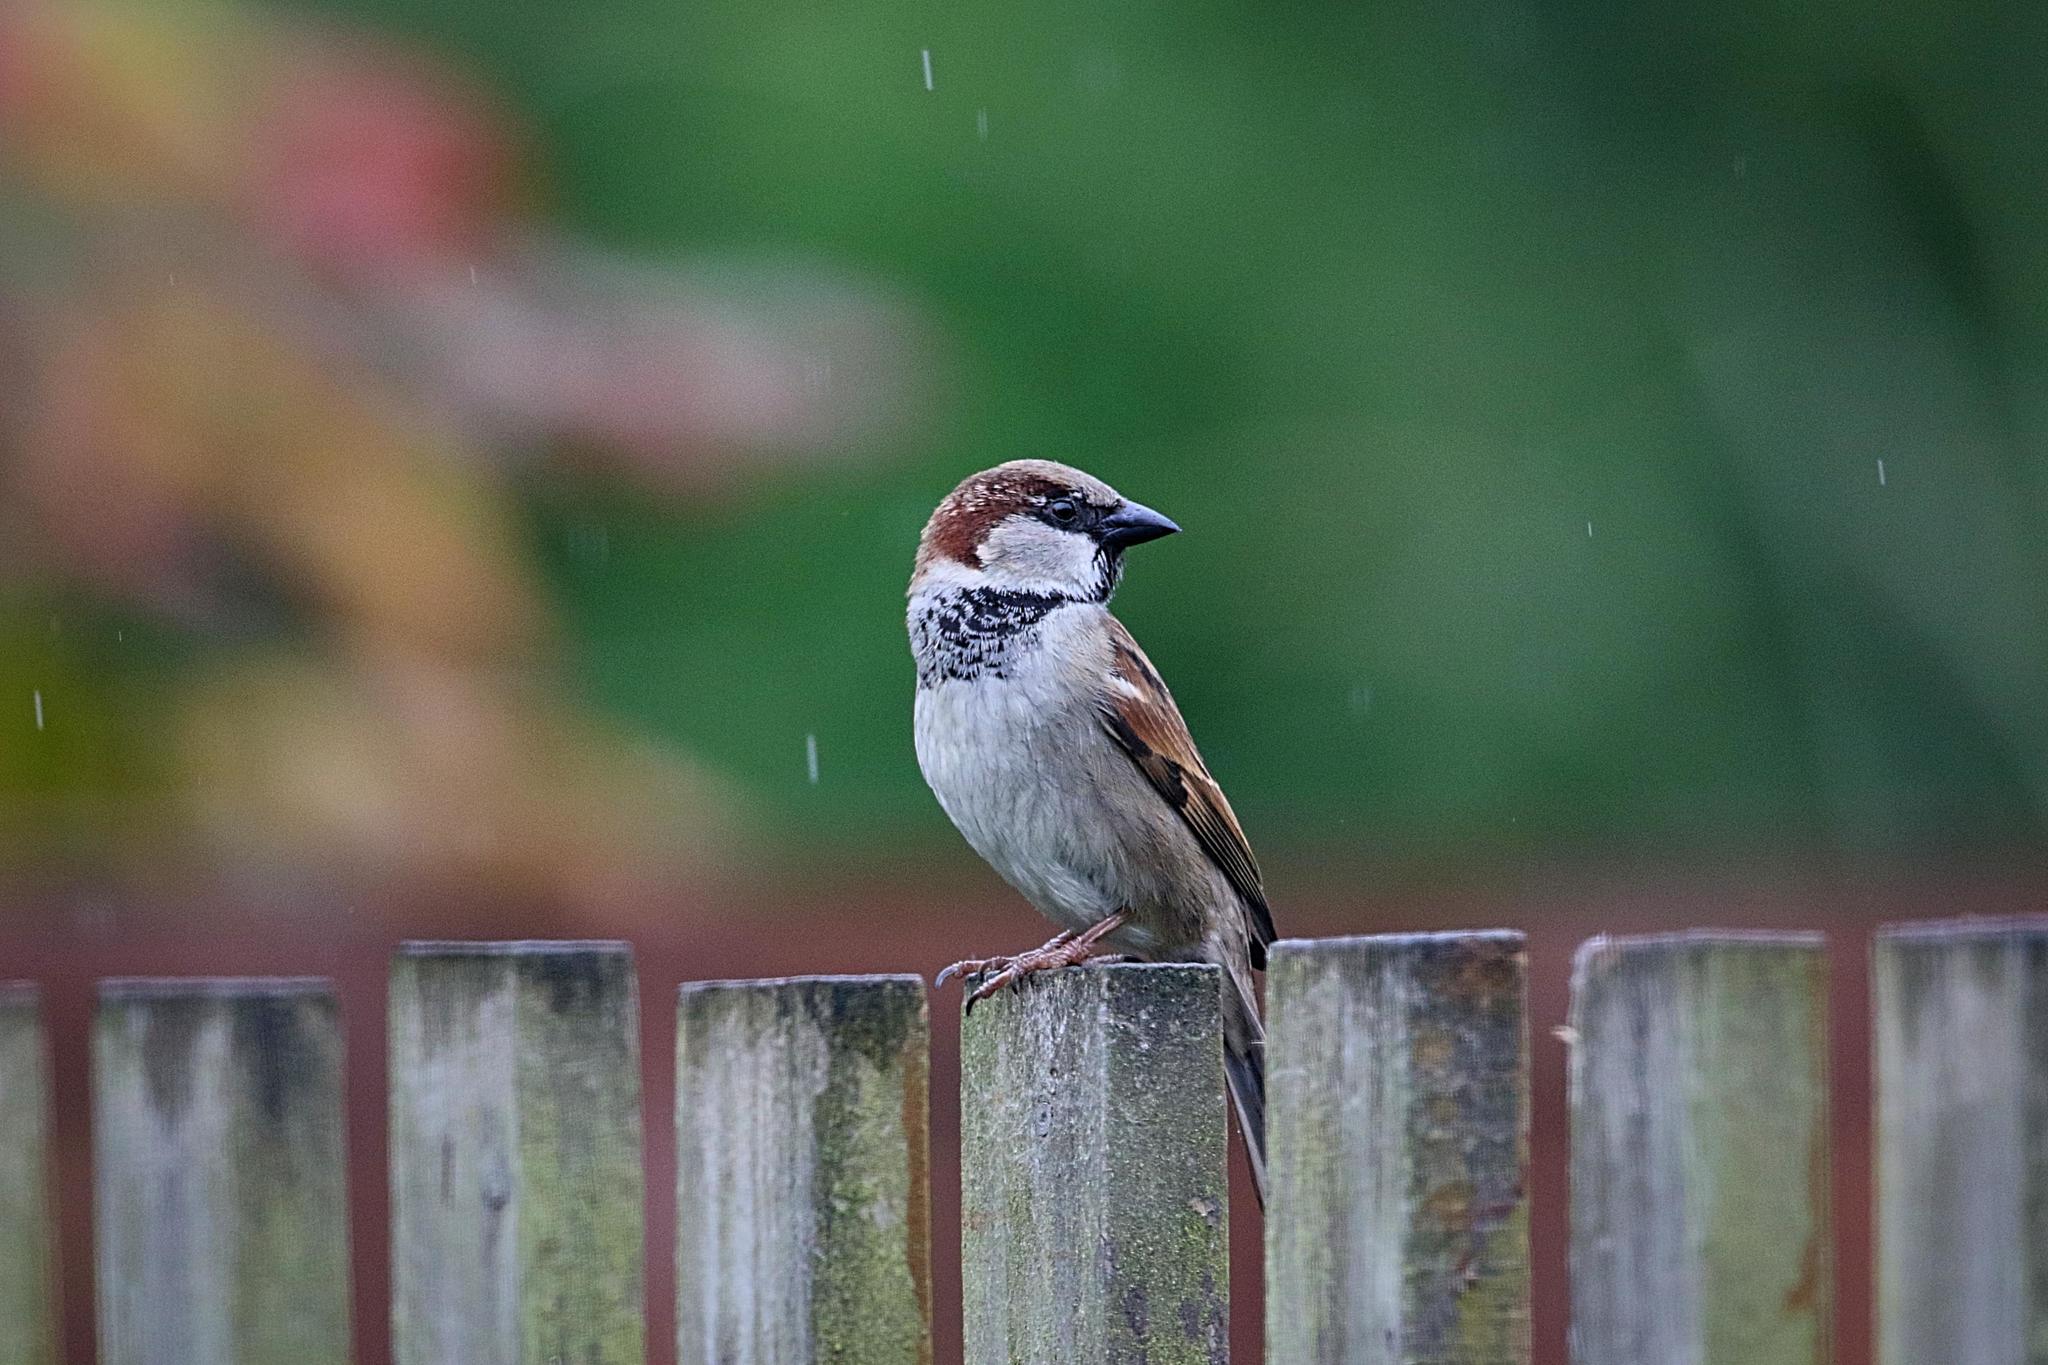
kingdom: Animalia
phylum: Chordata
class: Aves
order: Passeriformes
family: Passeridae
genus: Passer
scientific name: Passer domesticus
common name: House sparrow
